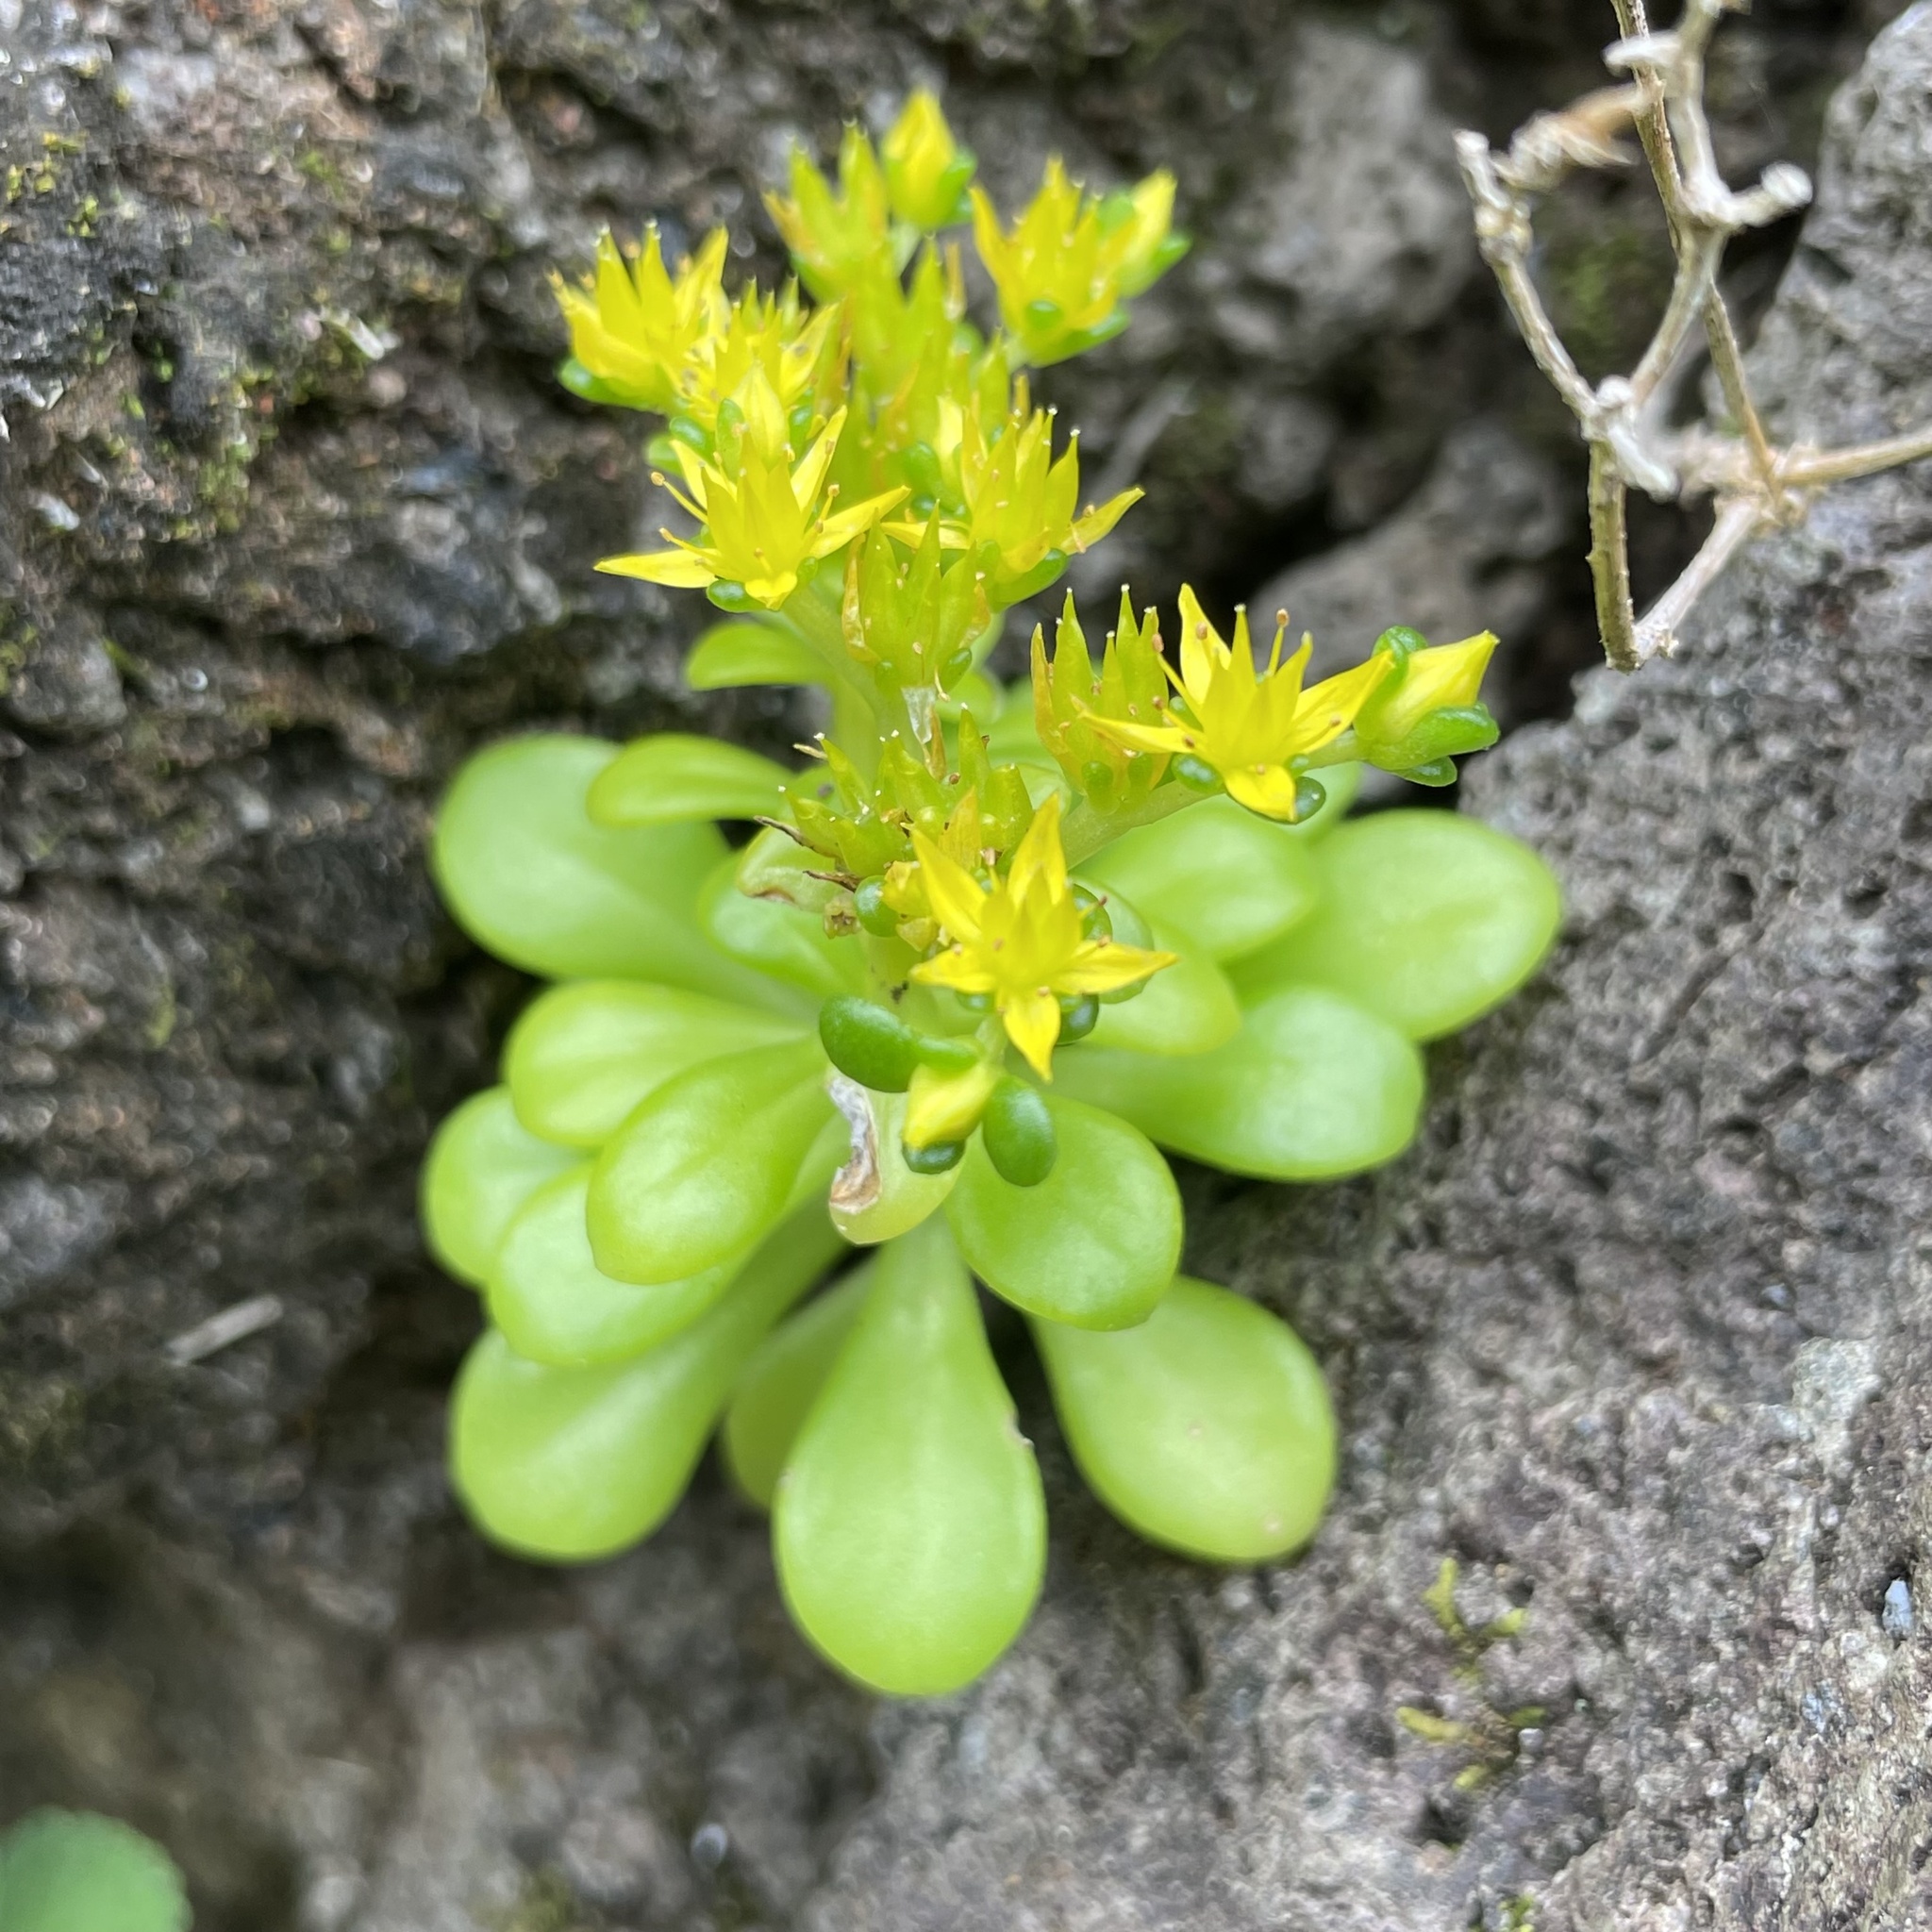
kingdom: Plantae
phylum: Tracheophyta
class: Magnoliopsida
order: Saxifragales
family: Crassulaceae
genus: Sedum
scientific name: Sedum formosanum
